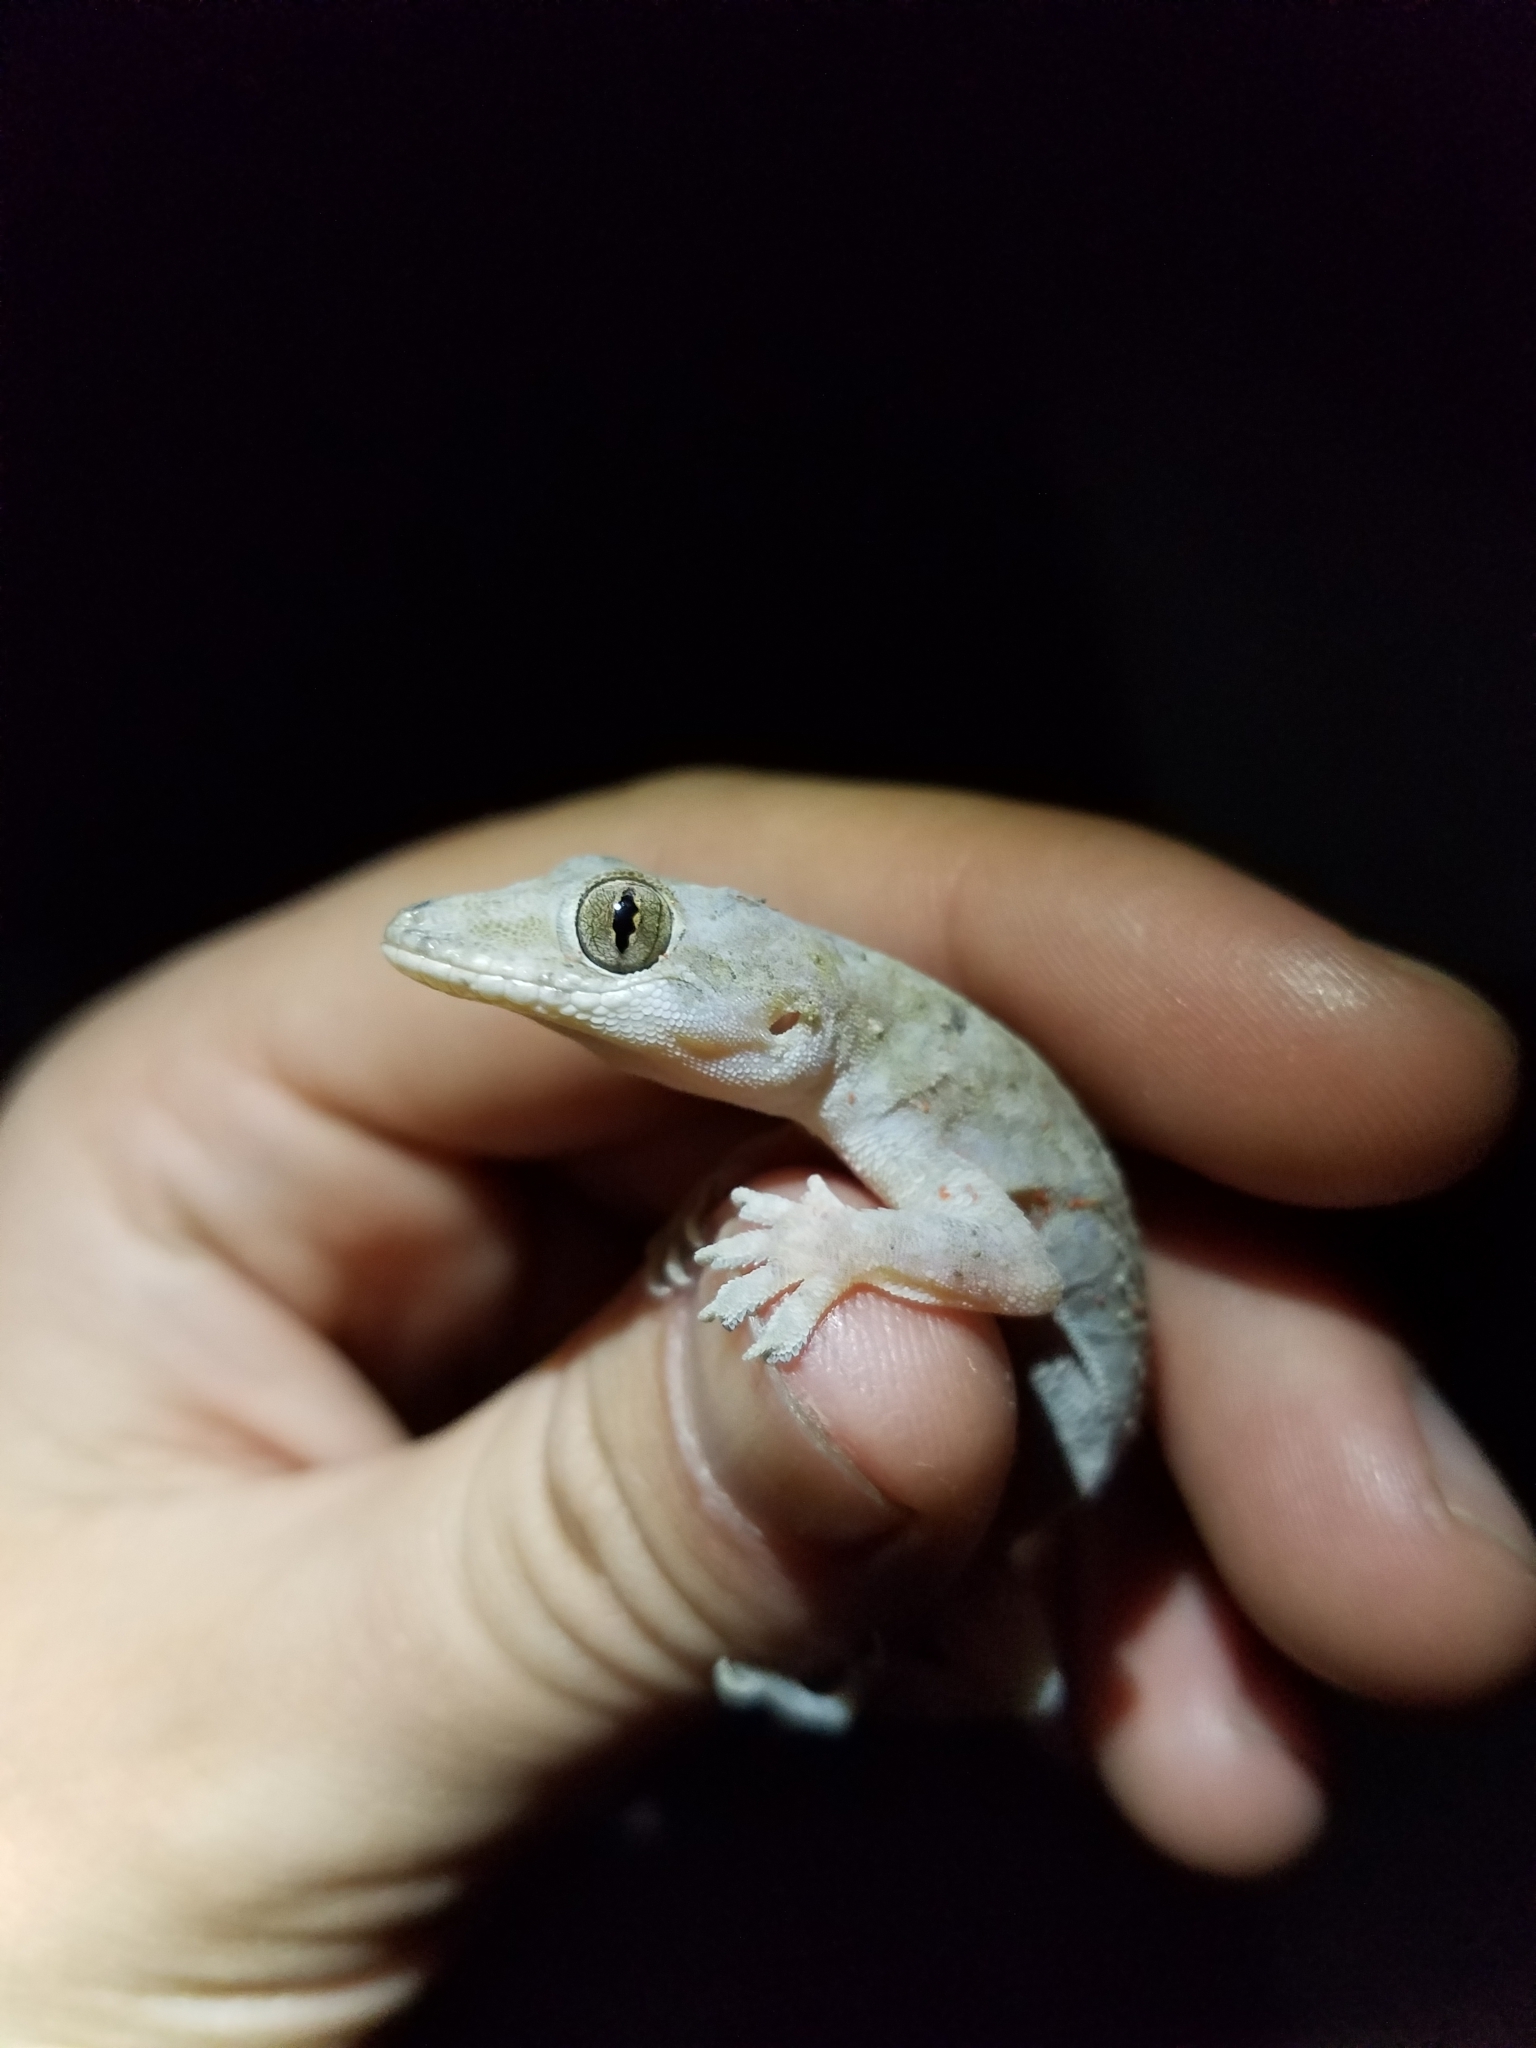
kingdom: Animalia
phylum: Chordata
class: Squamata
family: Gekkonidae
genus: Hemidactylus
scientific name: Hemidactylus mabouia
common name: House gecko
